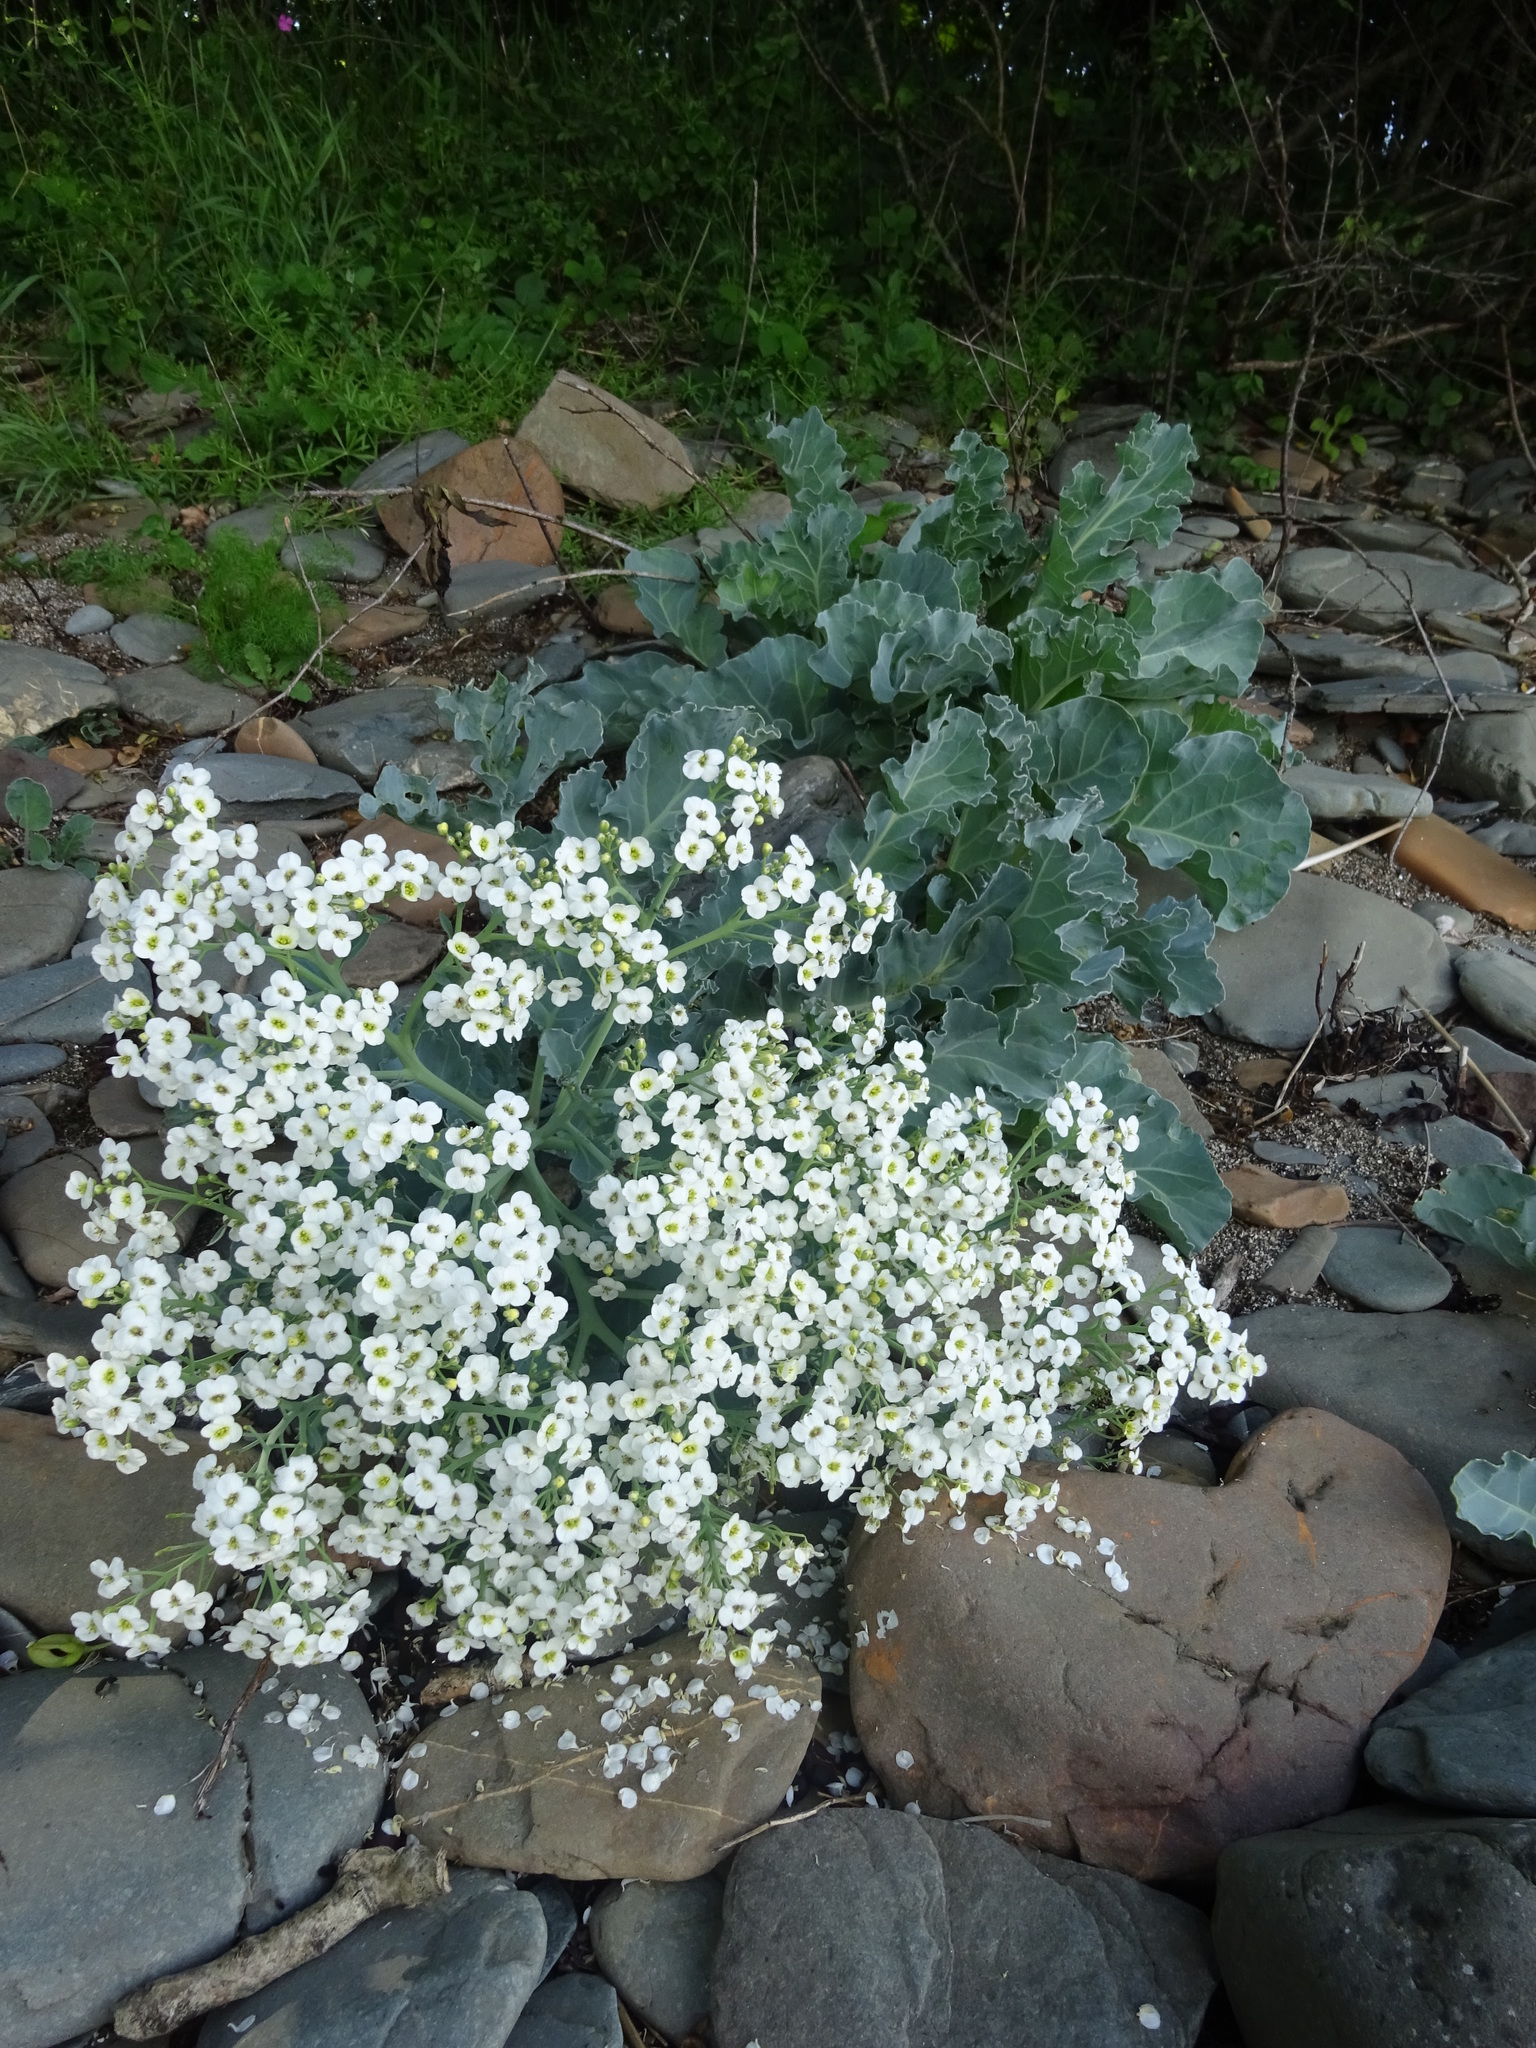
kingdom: Plantae
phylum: Tracheophyta
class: Magnoliopsida
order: Brassicales
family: Brassicaceae
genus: Crambe
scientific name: Crambe maritima
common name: Sea-kale
